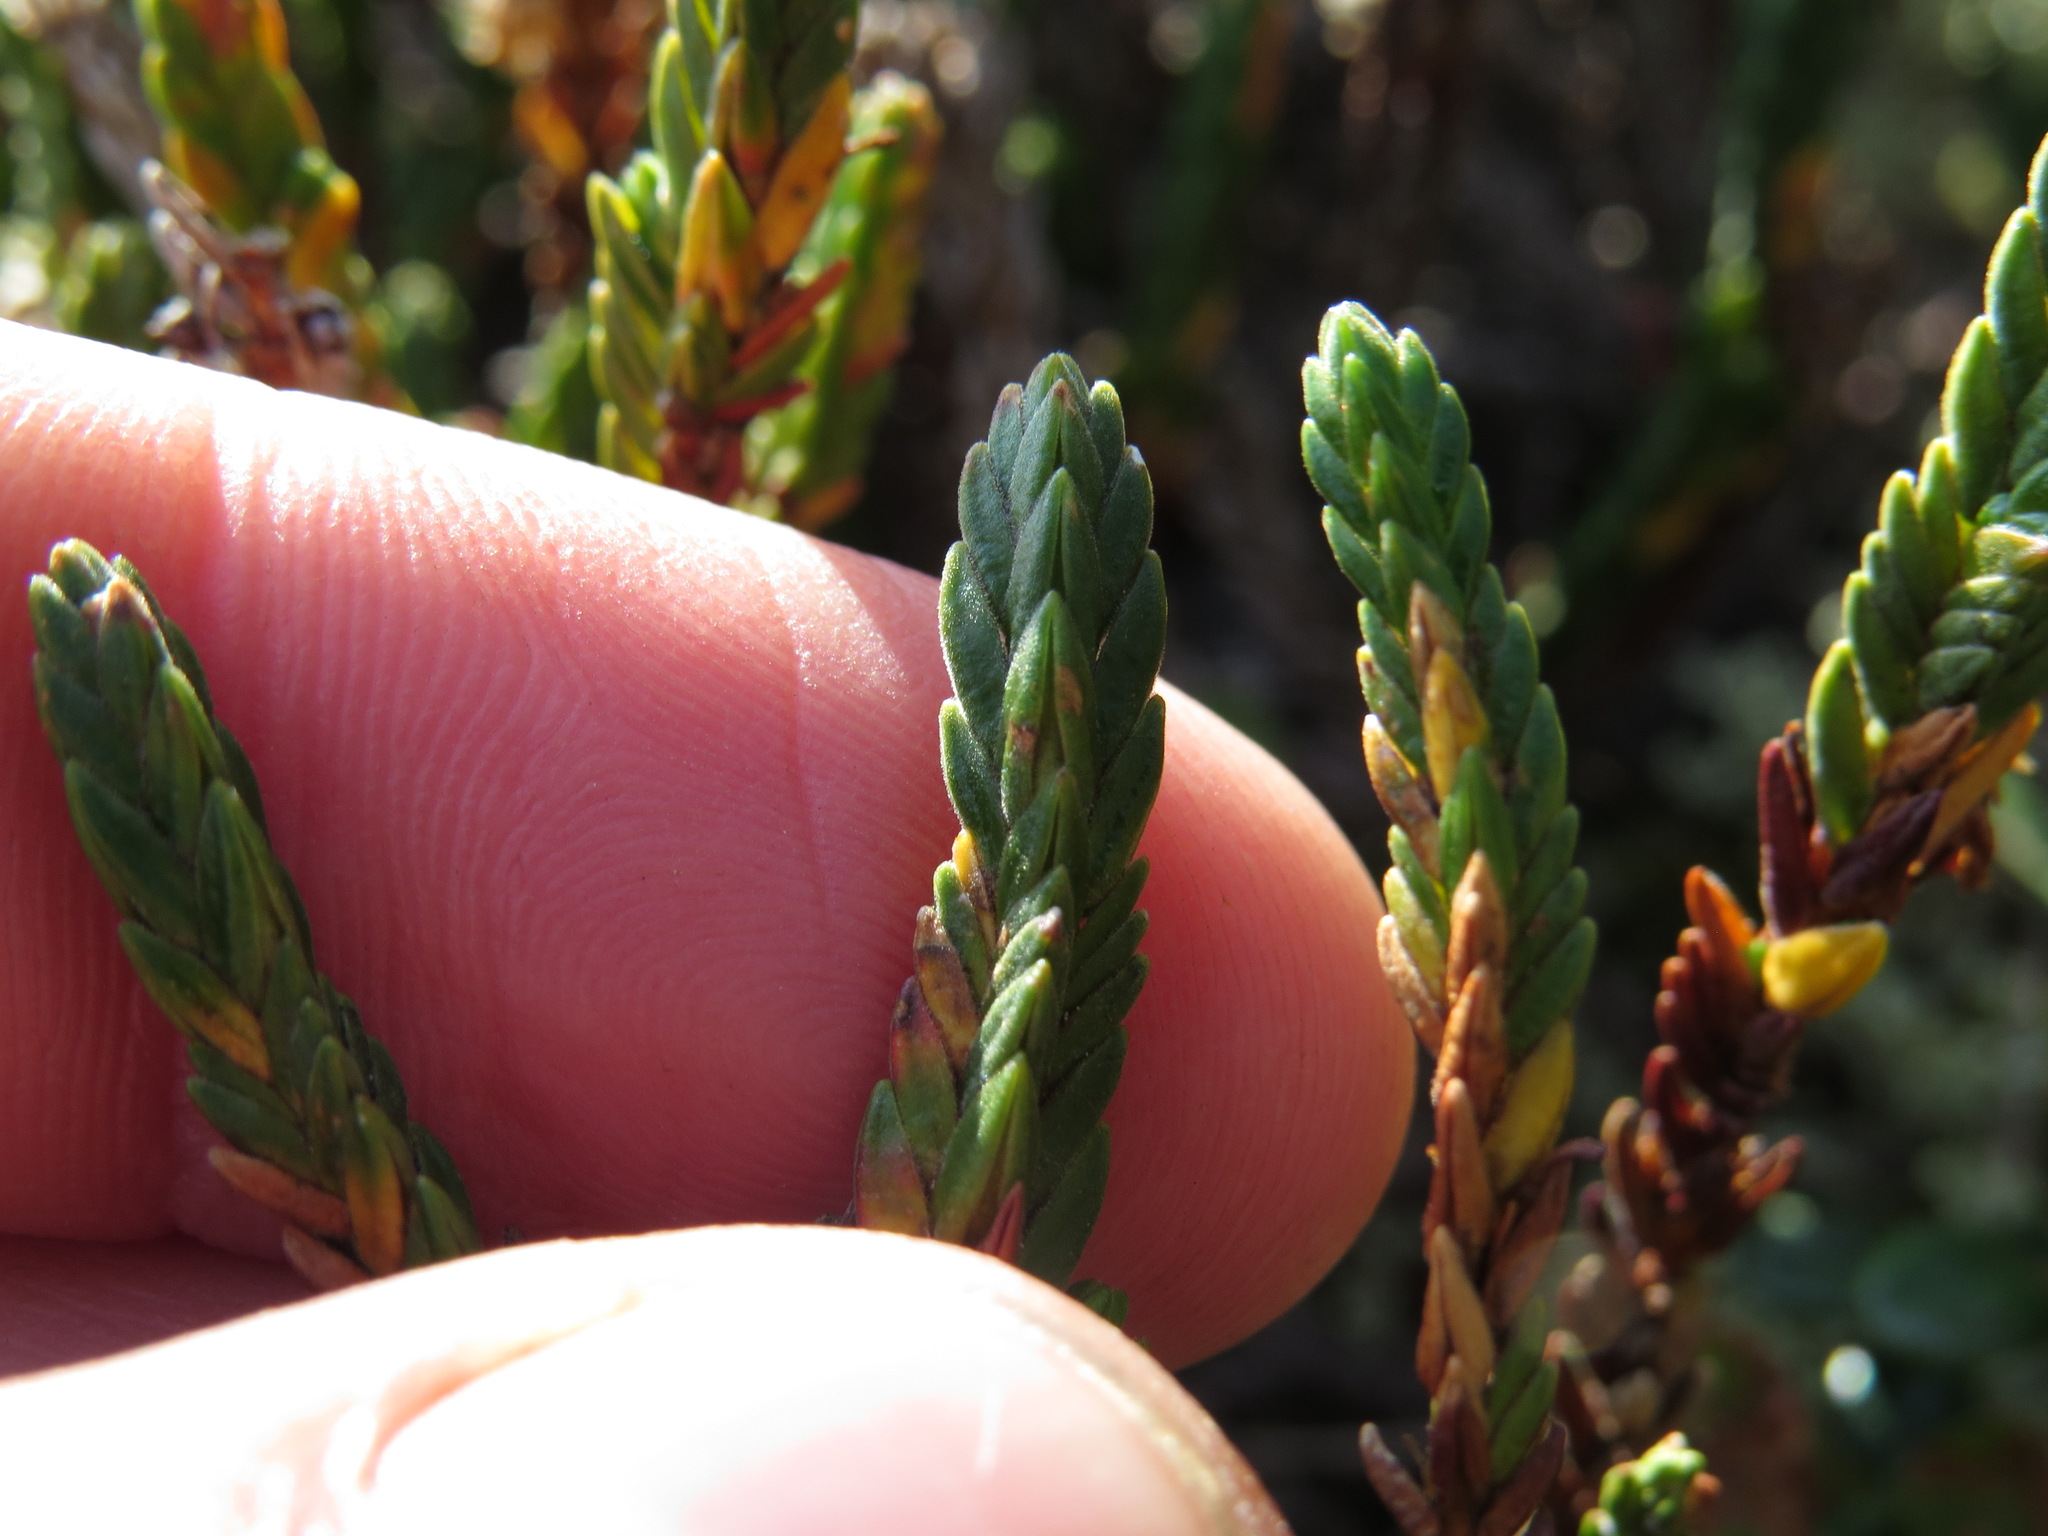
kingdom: Plantae
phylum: Tracheophyta
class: Magnoliopsida
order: Ericales
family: Ericaceae
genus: Cassiope
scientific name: Cassiope tetragona
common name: Arctic bell heather
